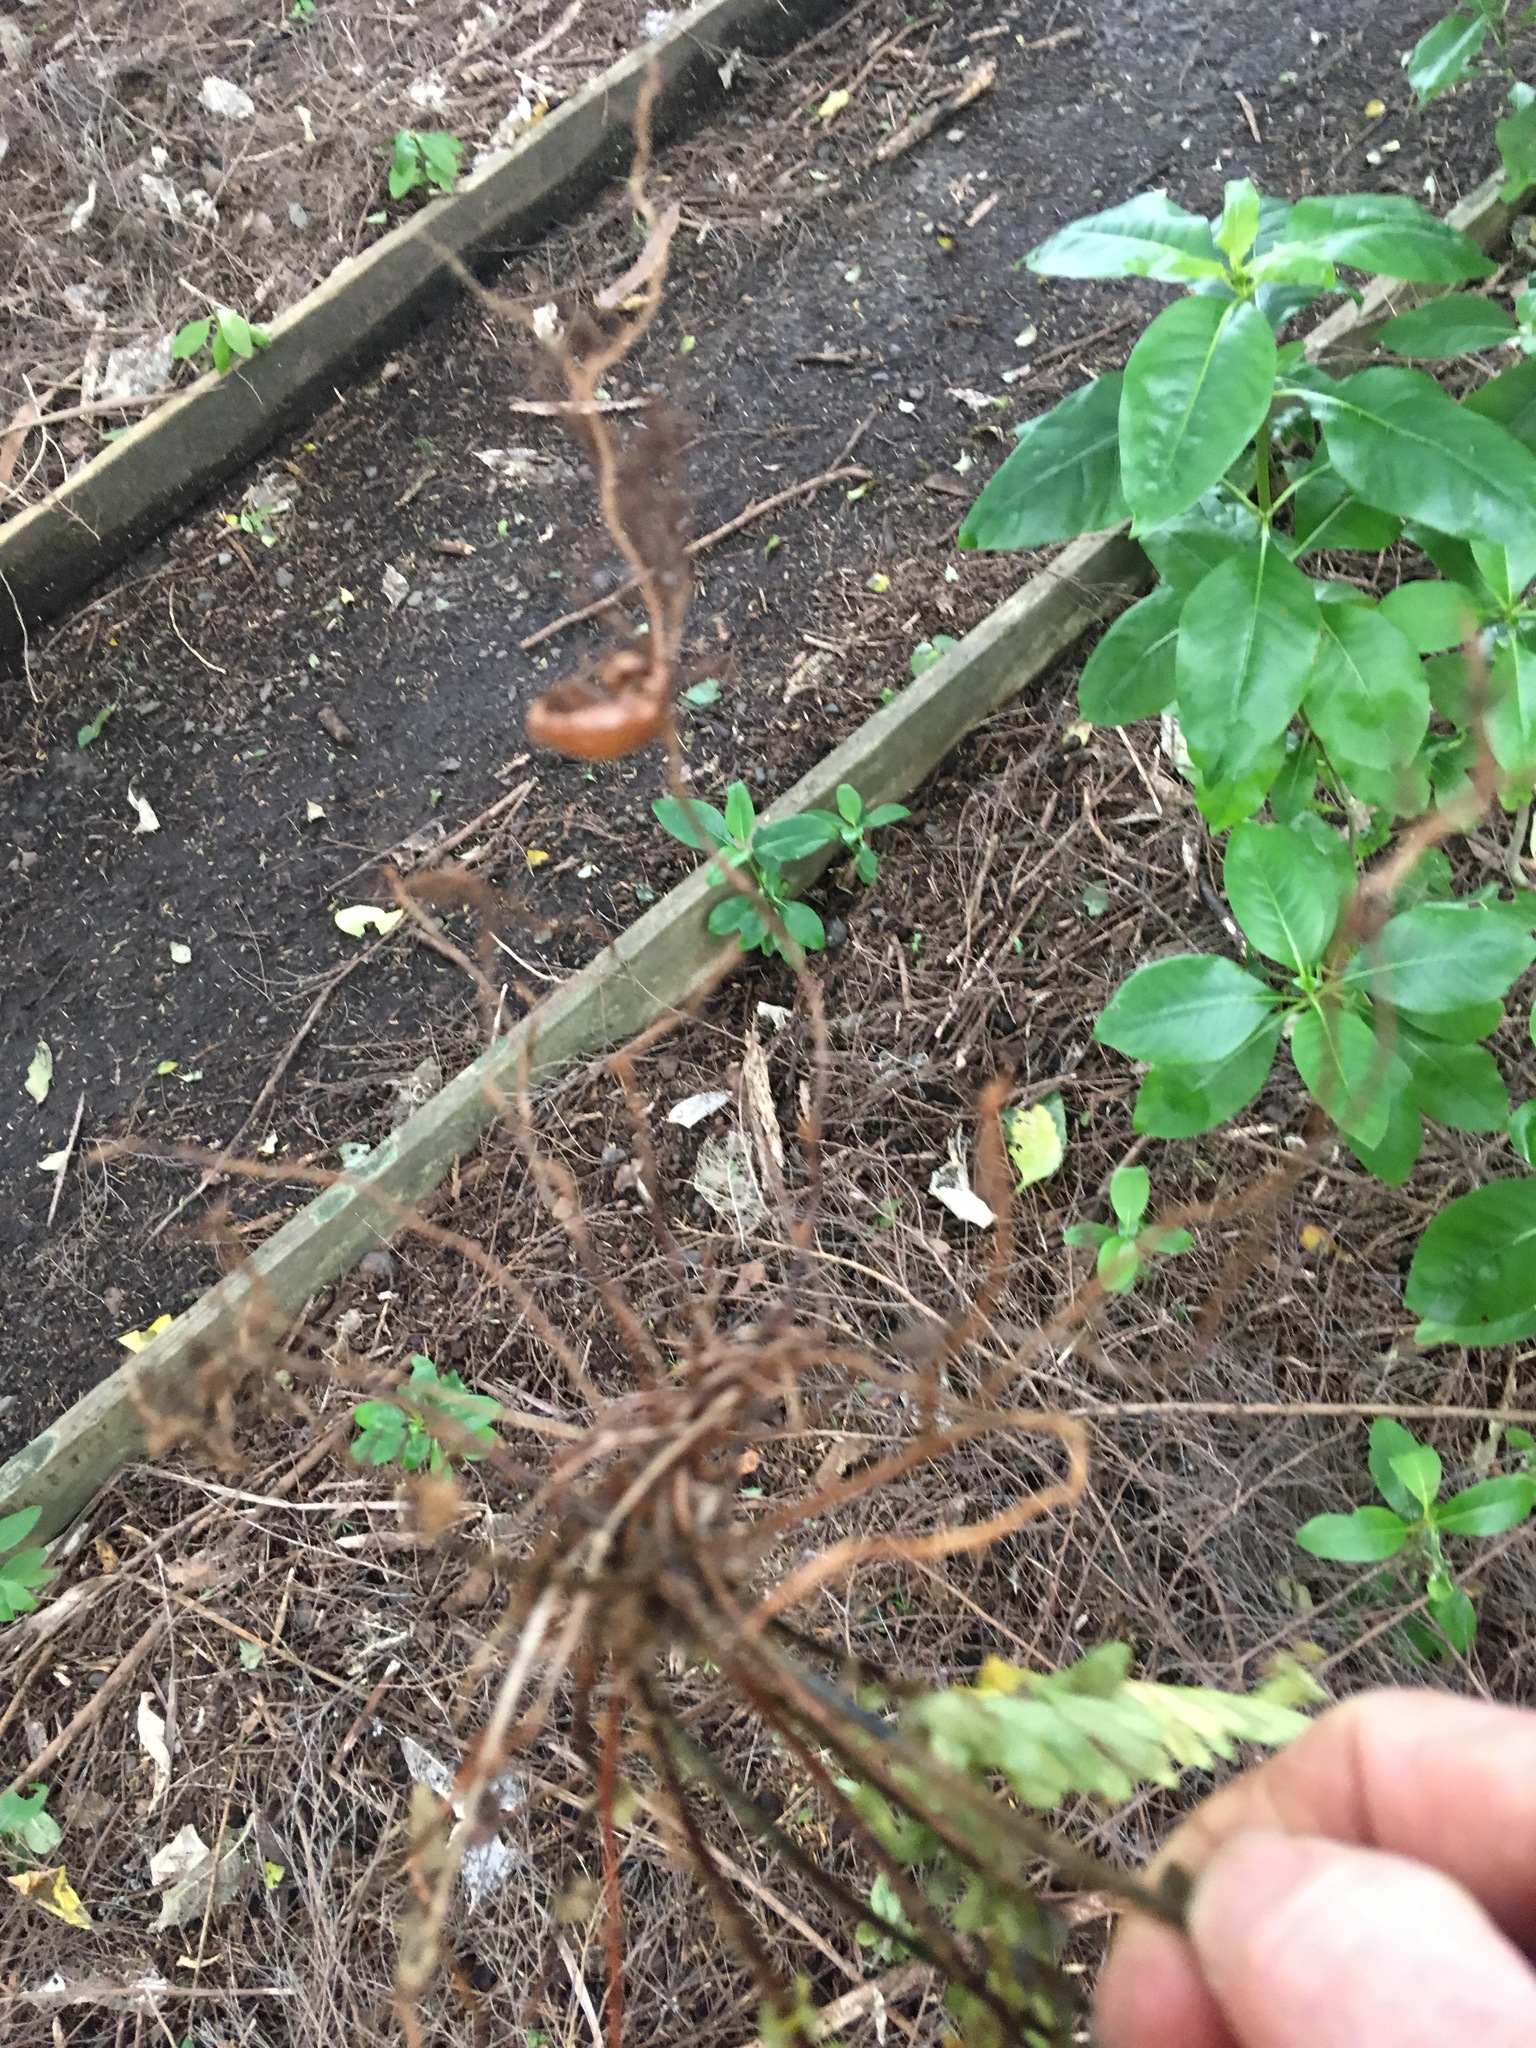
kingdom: Plantae
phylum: Tracheophyta
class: Polypodiopsida
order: Polypodiales
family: Nephrolepidaceae
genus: Nephrolepis
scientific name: Nephrolepis cordifolia
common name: Narrow swordfern
